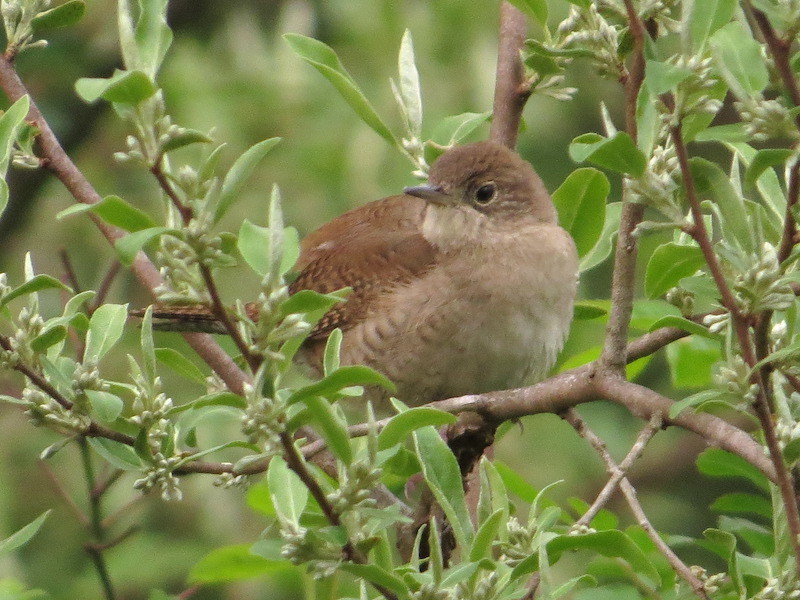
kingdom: Animalia
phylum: Chordata
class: Aves
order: Passeriformes
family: Troglodytidae
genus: Troglodytes
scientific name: Troglodytes aedon
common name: House wren
